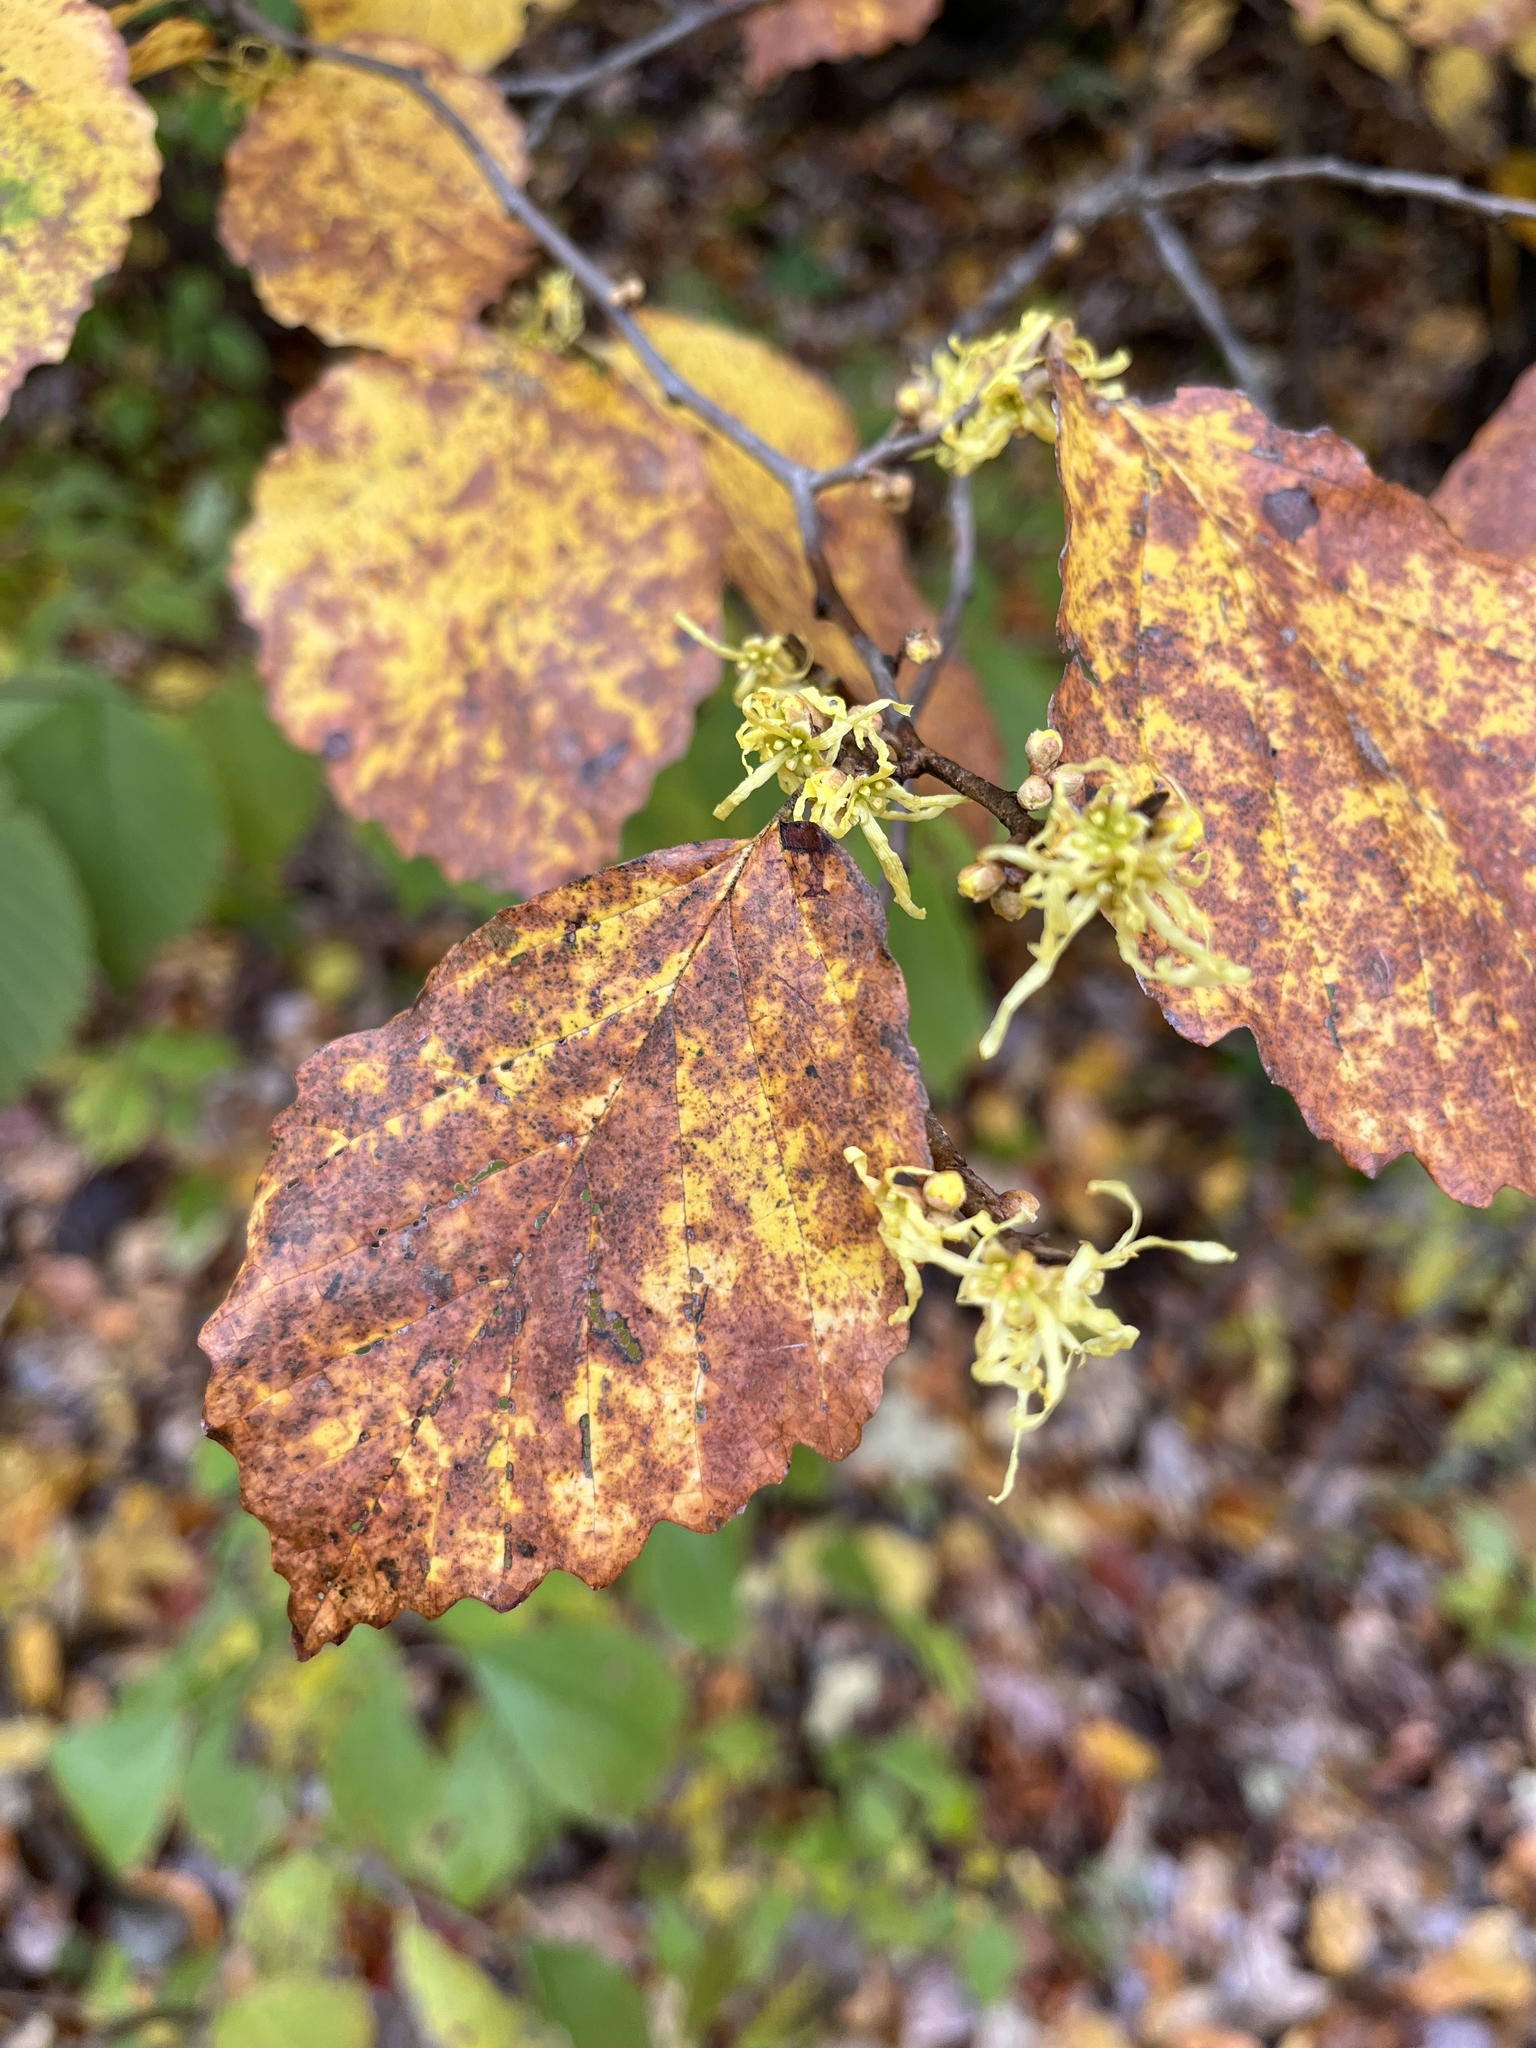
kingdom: Plantae
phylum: Tracheophyta
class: Magnoliopsida
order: Saxifragales
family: Hamamelidaceae
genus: Hamamelis
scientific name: Hamamelis virginiana
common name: Witch-hazel
